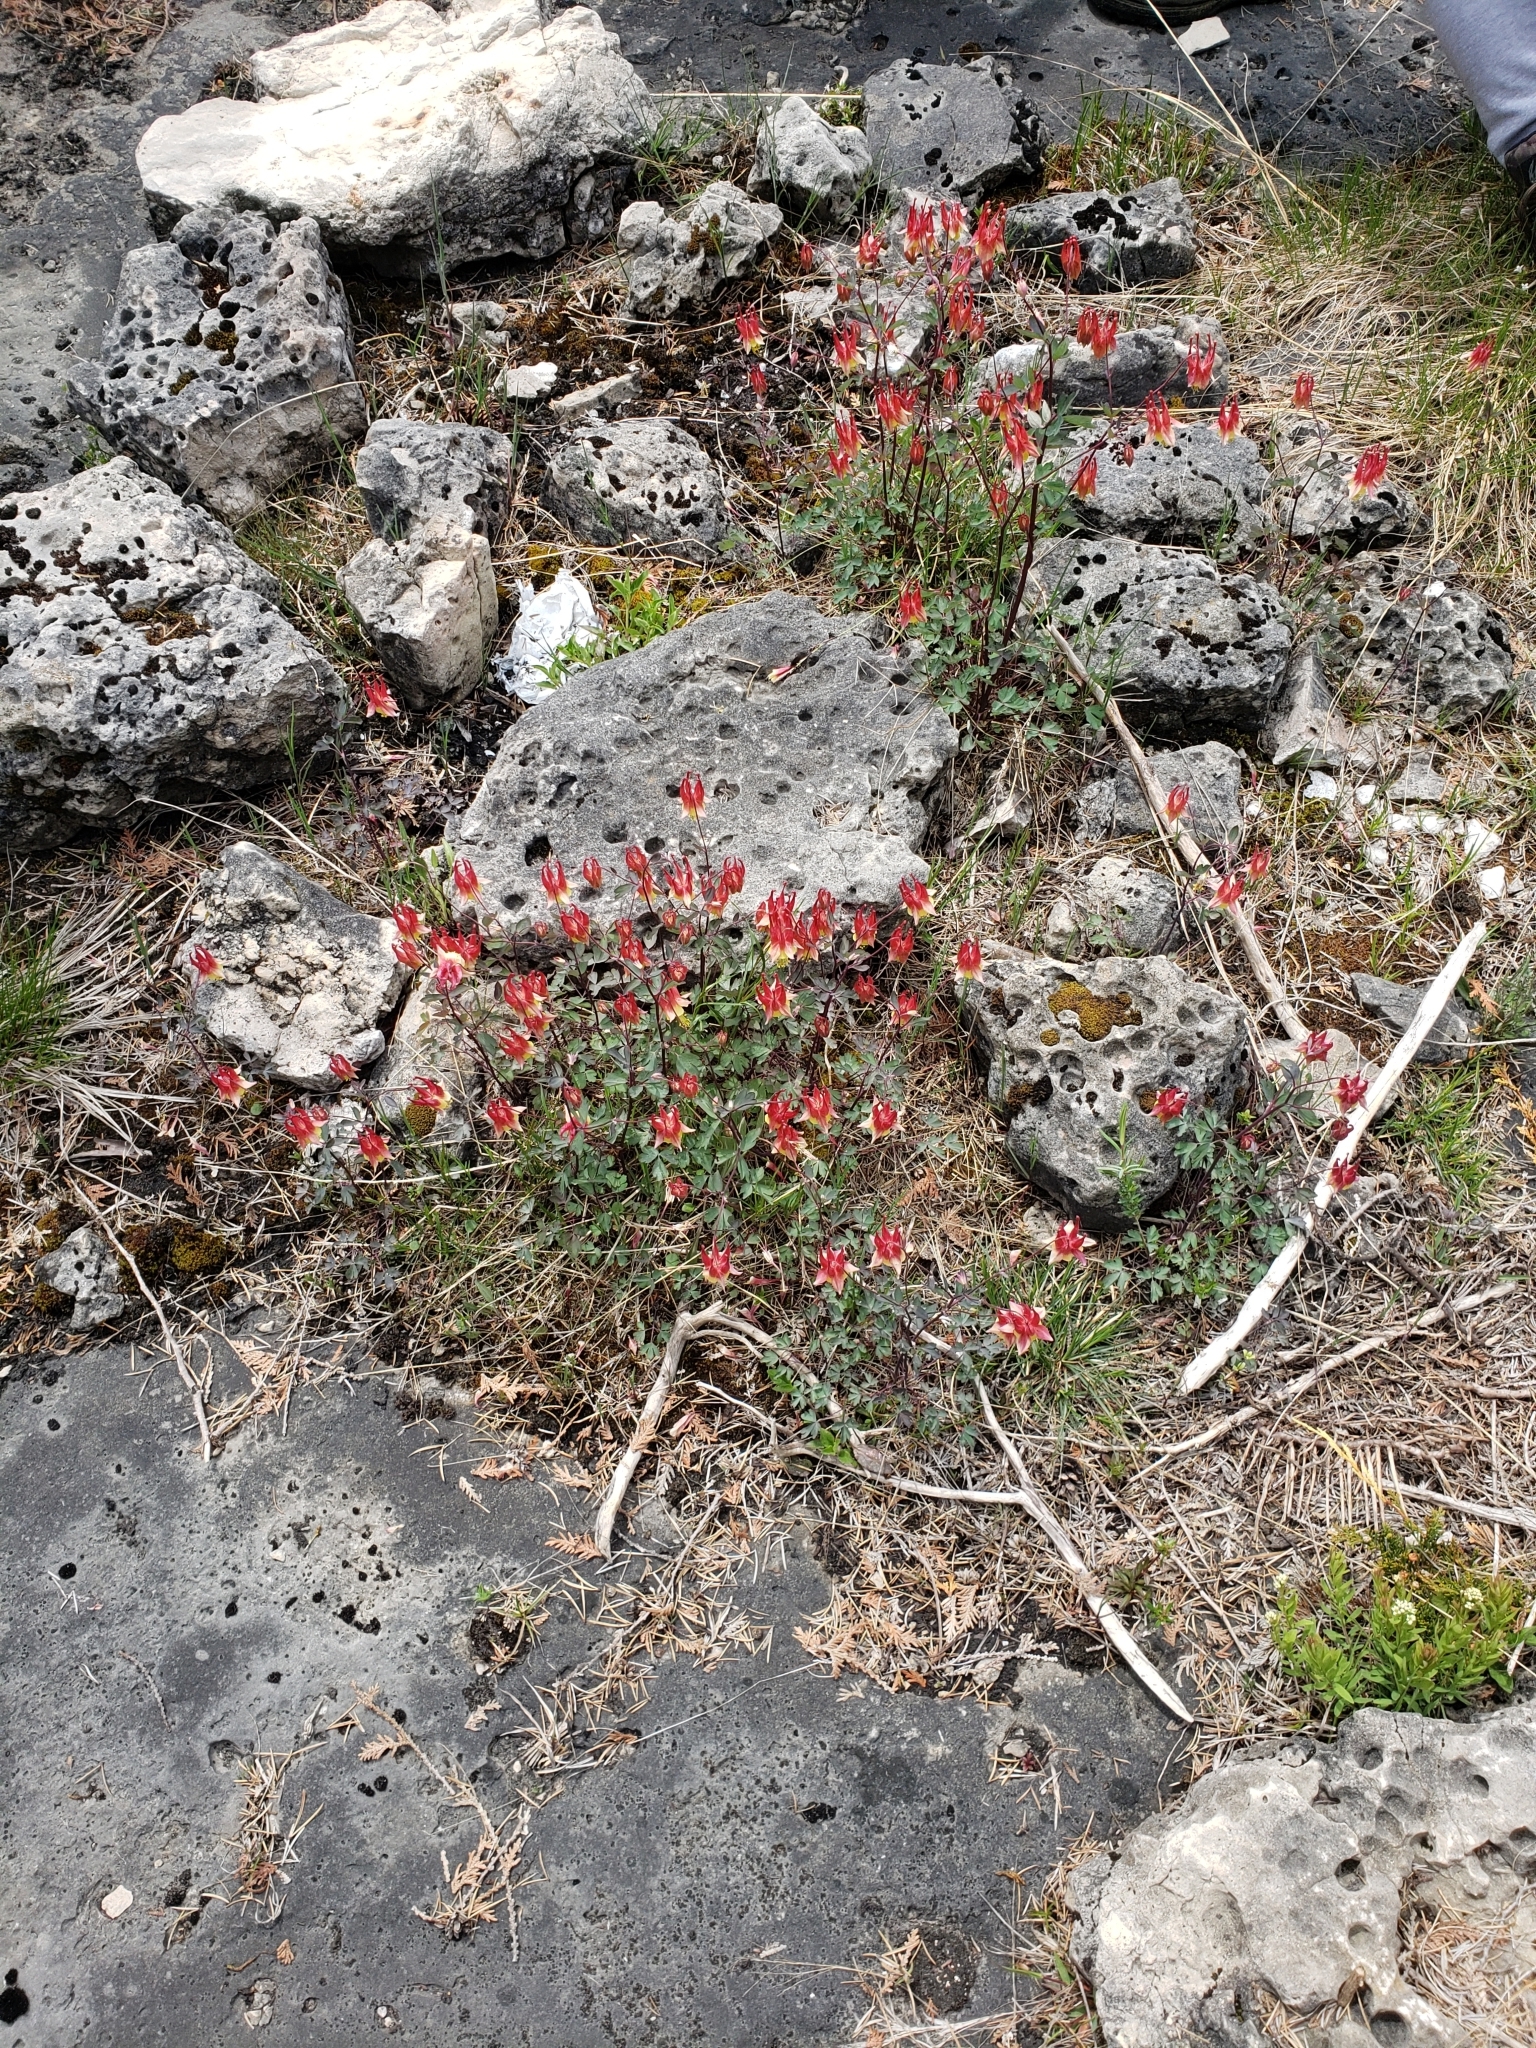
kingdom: Plantae
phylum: Tracheophyta
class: Magnoliopsida
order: Ranunculales
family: Ranunculaceae
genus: Aquilegia
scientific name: Aquilegia canadensis
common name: American columbine
